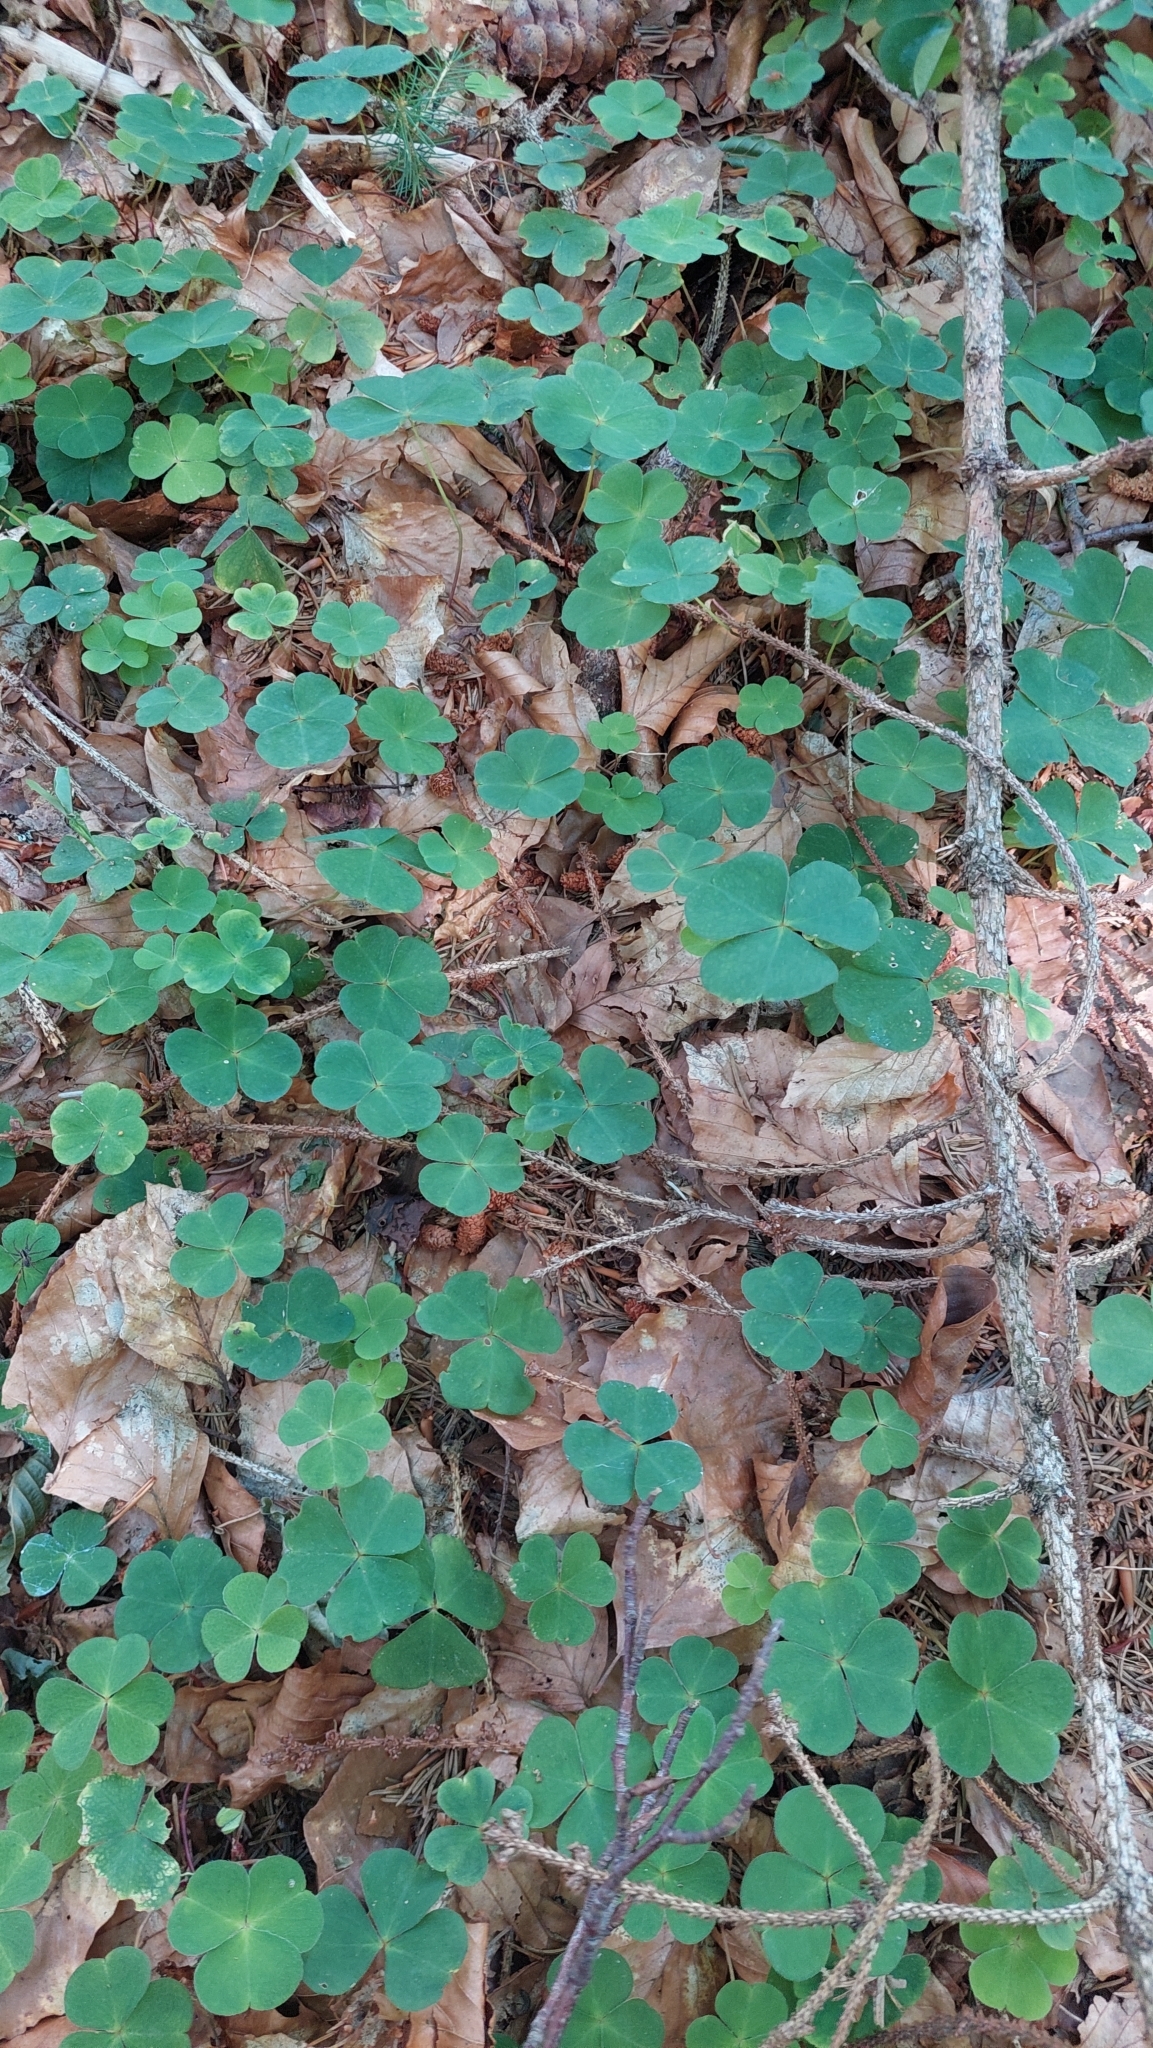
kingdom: Plantae
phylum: Tracheophyta
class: Magnoliopsida
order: Oxalidales
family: Oxalidaceae
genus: Oxalis
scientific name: Oxalis acetosella
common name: Wood-sorrel
